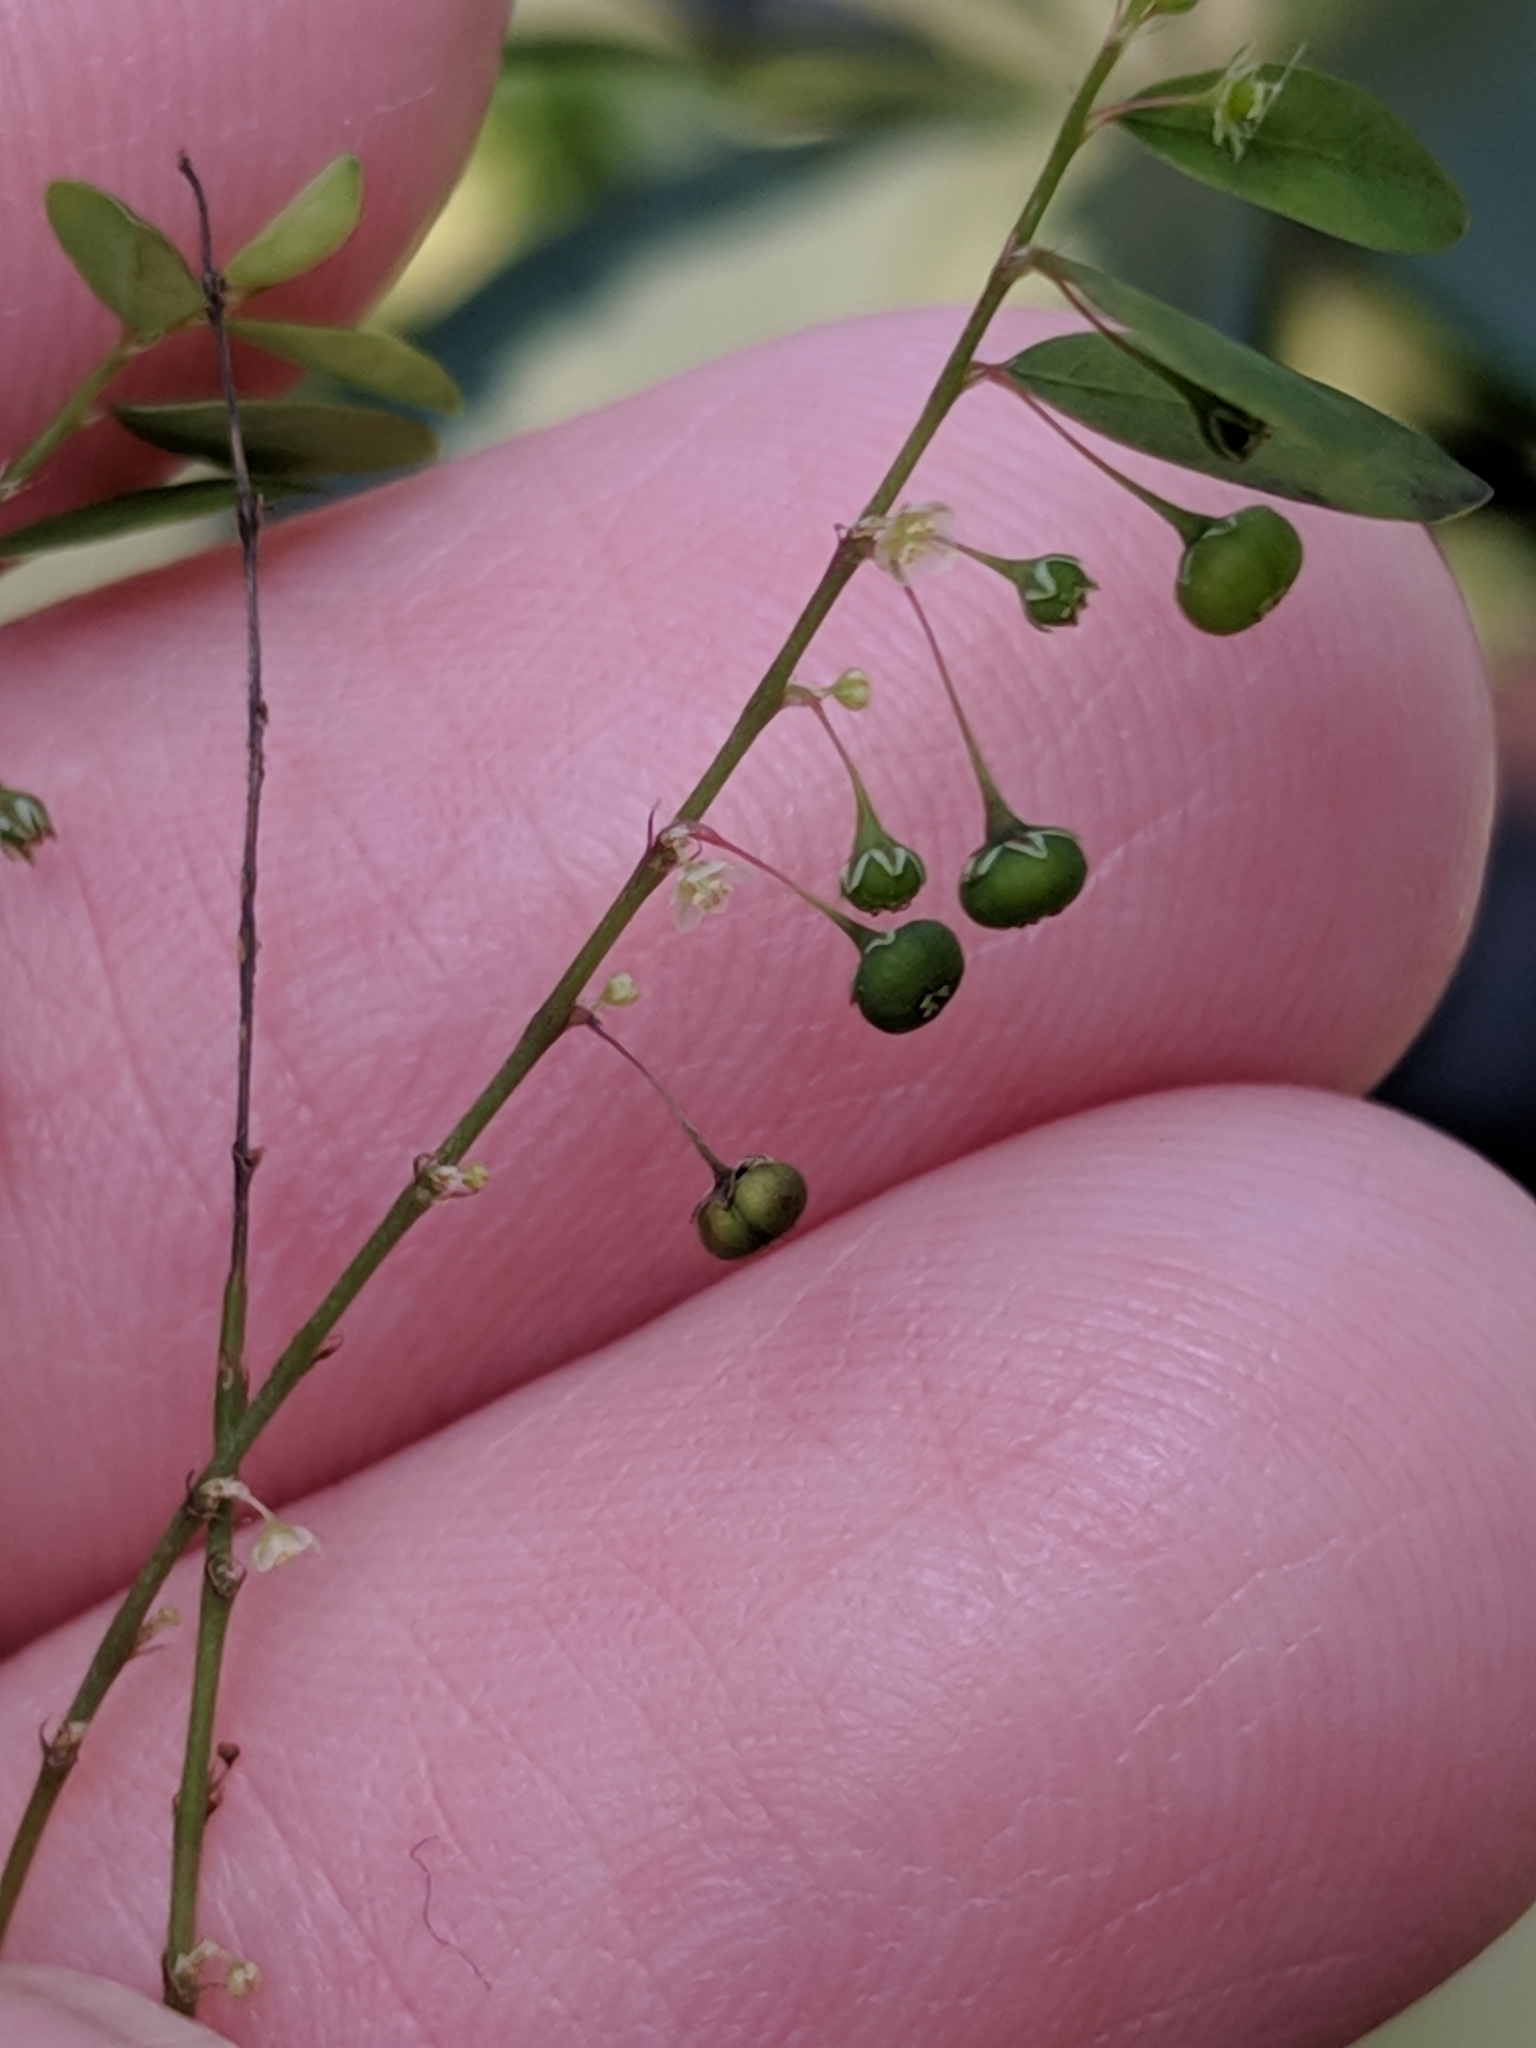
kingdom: Plantae
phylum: Tracheophyta
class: Magnoliopsida
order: Malpighiales
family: Phyllanthaceae
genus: Phyllanthus
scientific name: Phyllanthus tenellus
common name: Mascarene island leaf-flower
